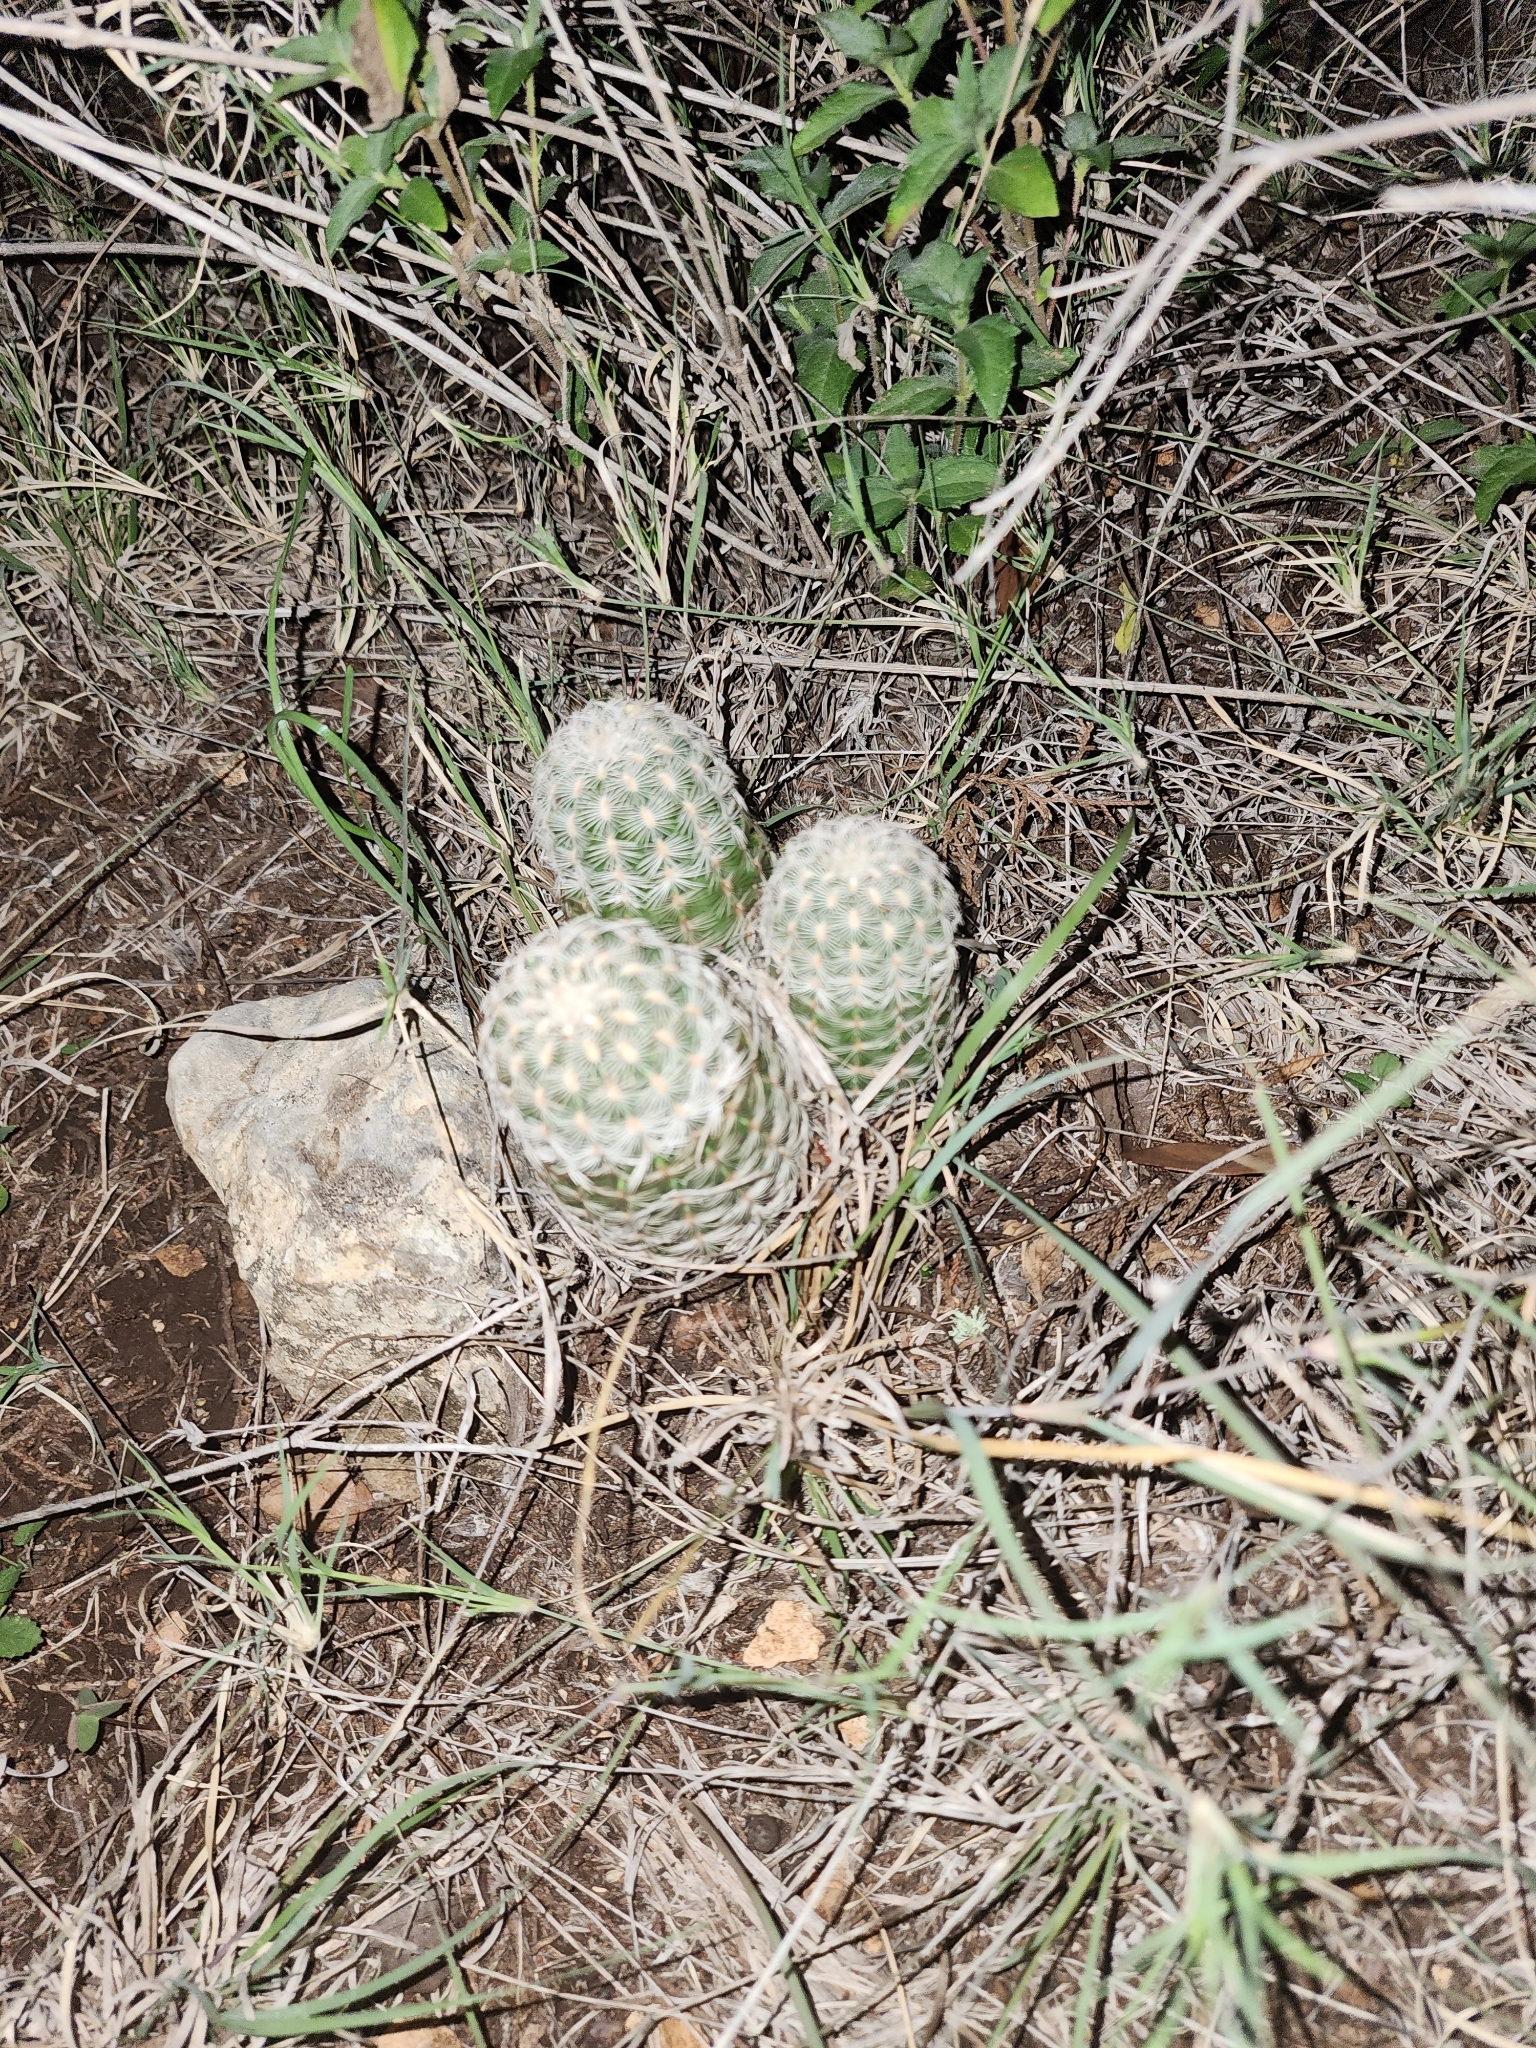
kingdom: Plantae
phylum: Tracheophyta
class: Magnoliopsida
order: Caryophyllales
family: Cactaceae
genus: Echinocereus
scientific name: Echinocereus reichenbachii
